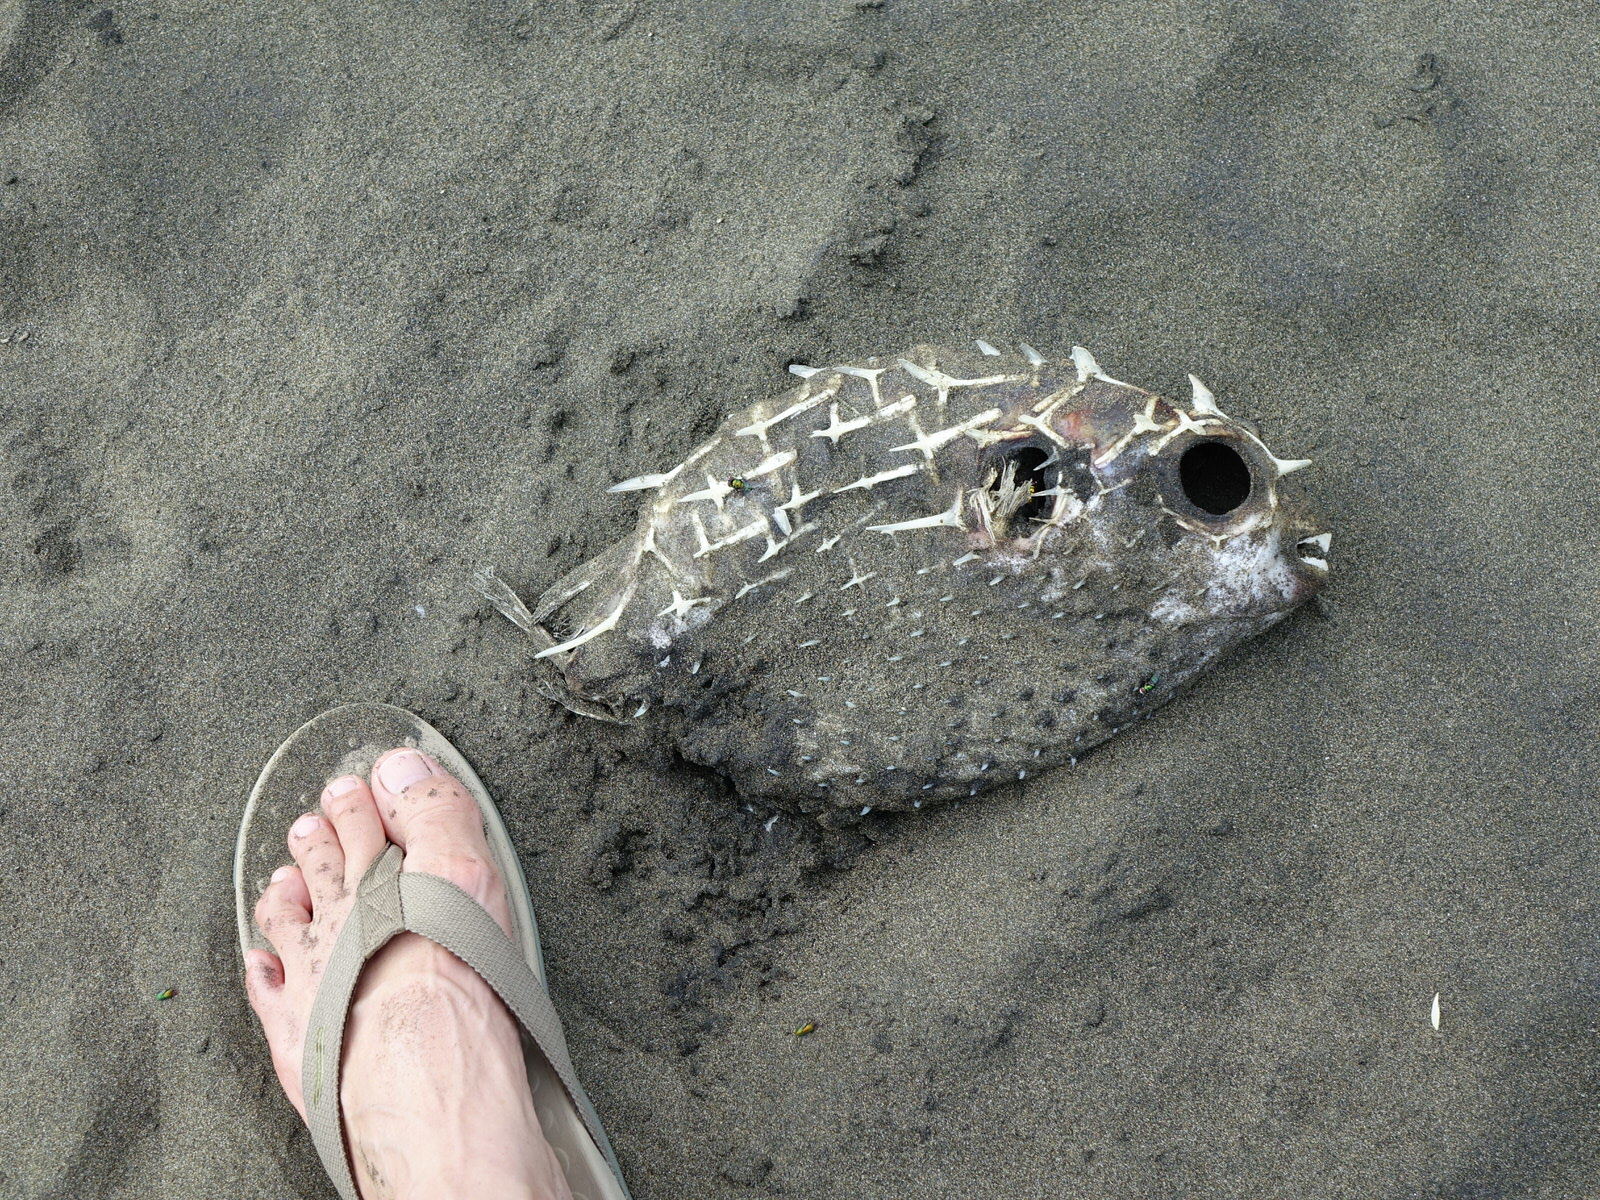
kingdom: Animalia
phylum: Chordata
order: Tetraodontiformes
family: Diodontidae
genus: Allomycterus
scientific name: Allomycterus pilatus
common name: No common name
